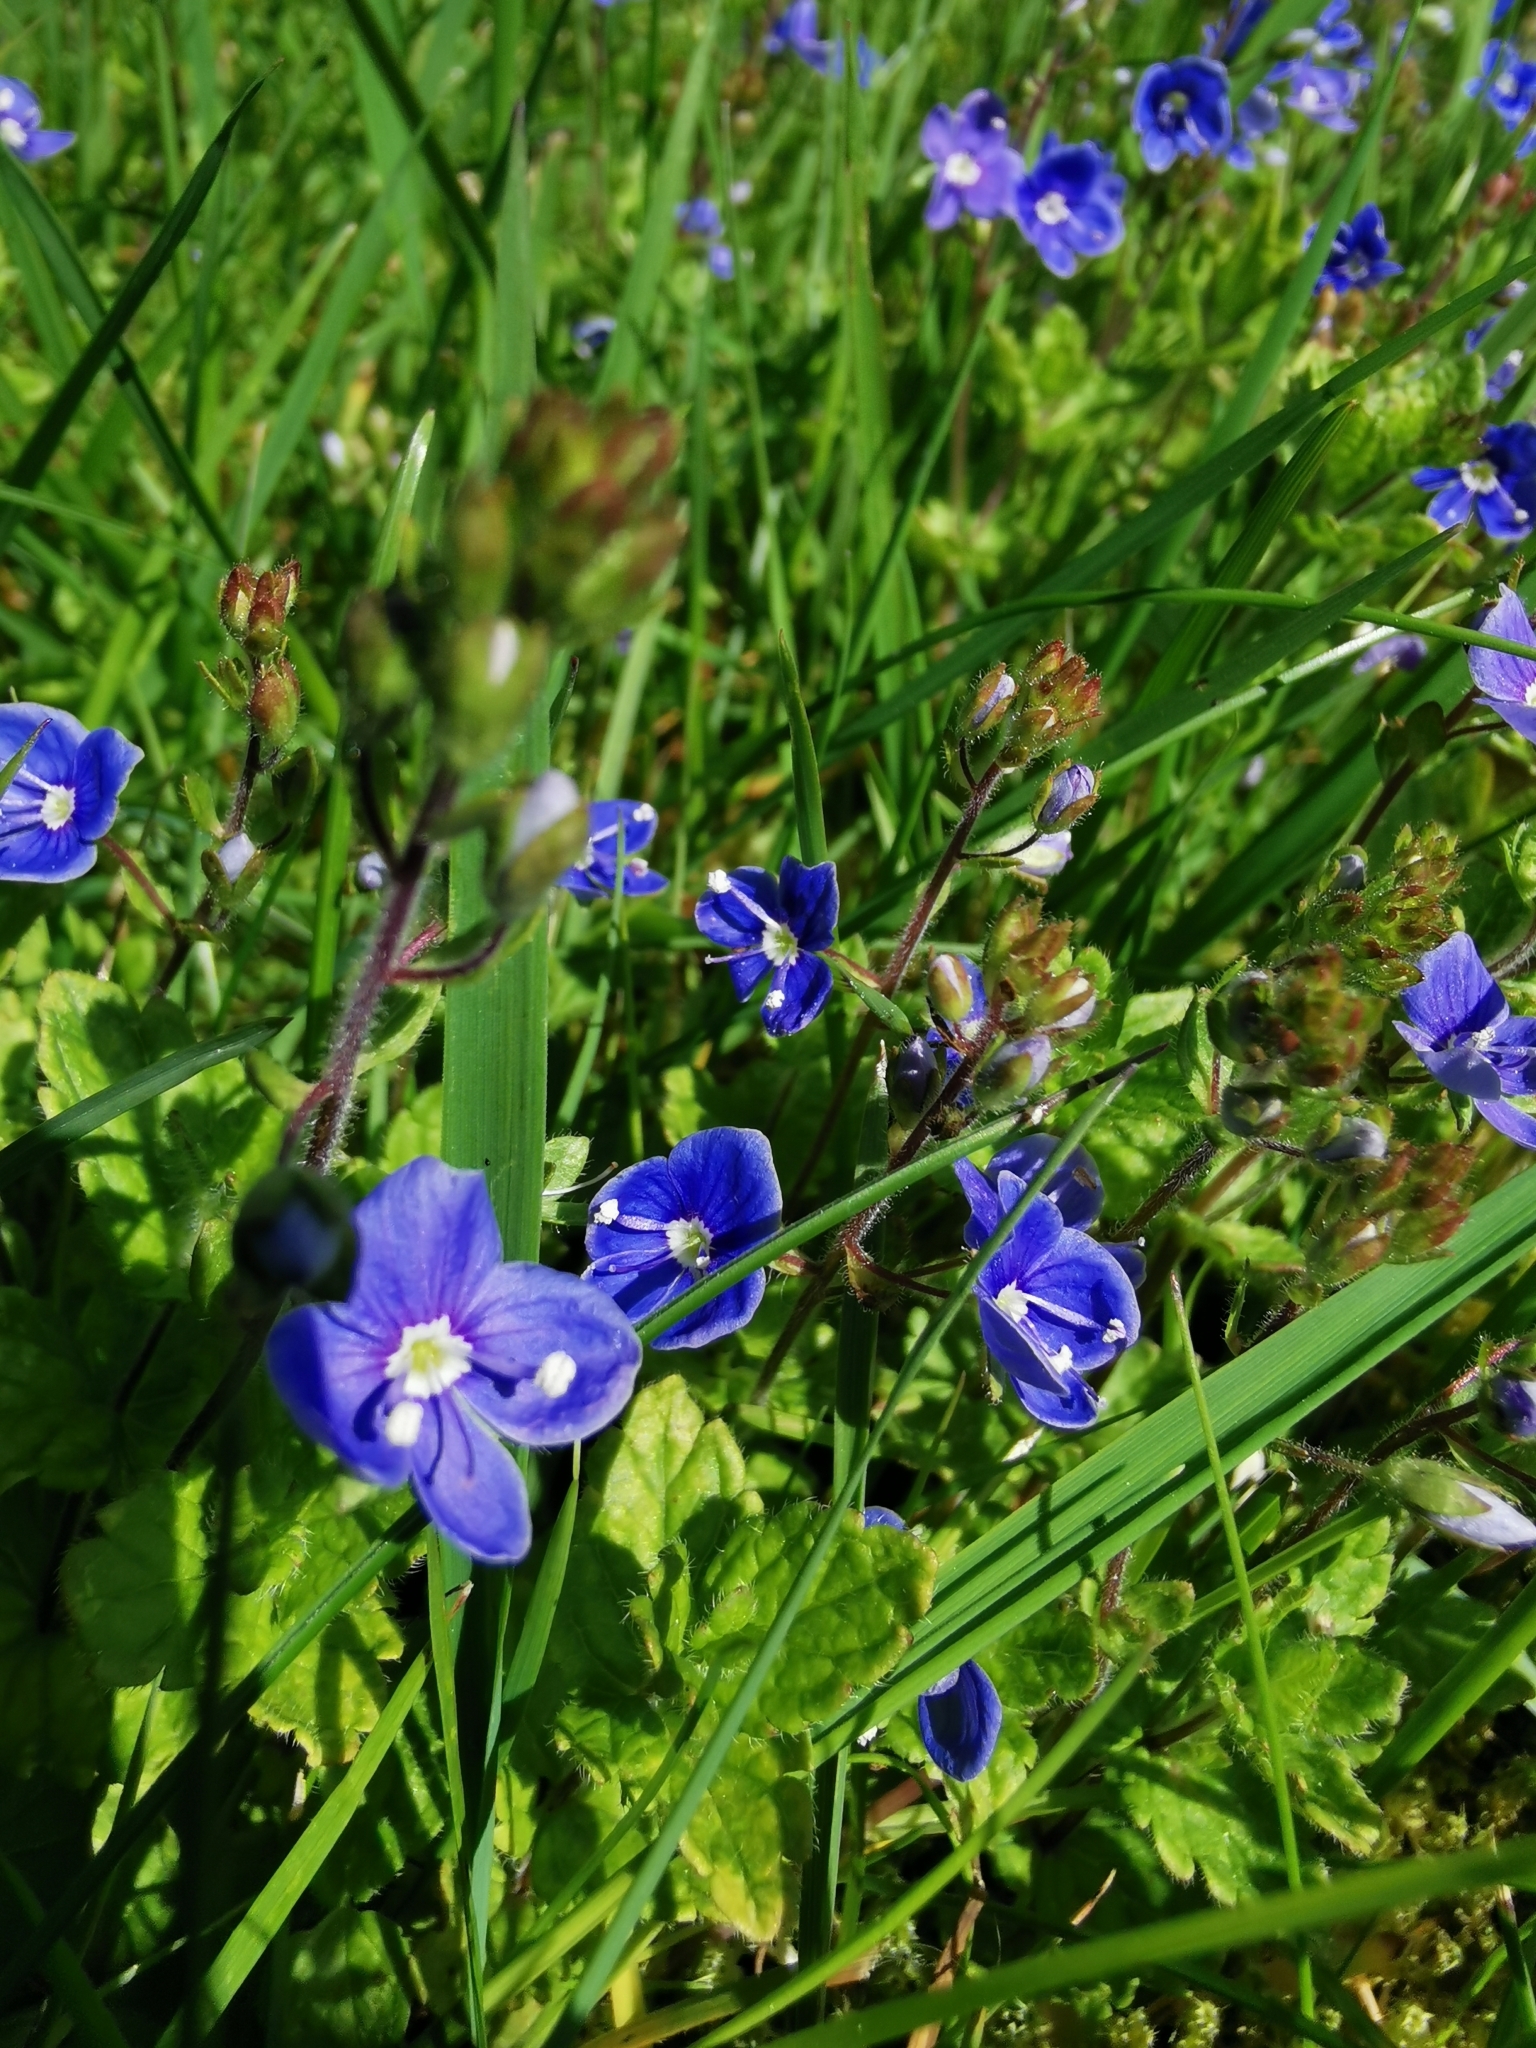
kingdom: Plantae
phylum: Tracheophyta
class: Magnoliopsida
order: Lamiales
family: Plantaginaceae
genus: Veronica
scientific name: Veronica chamaedrys
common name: Germander speedwell
